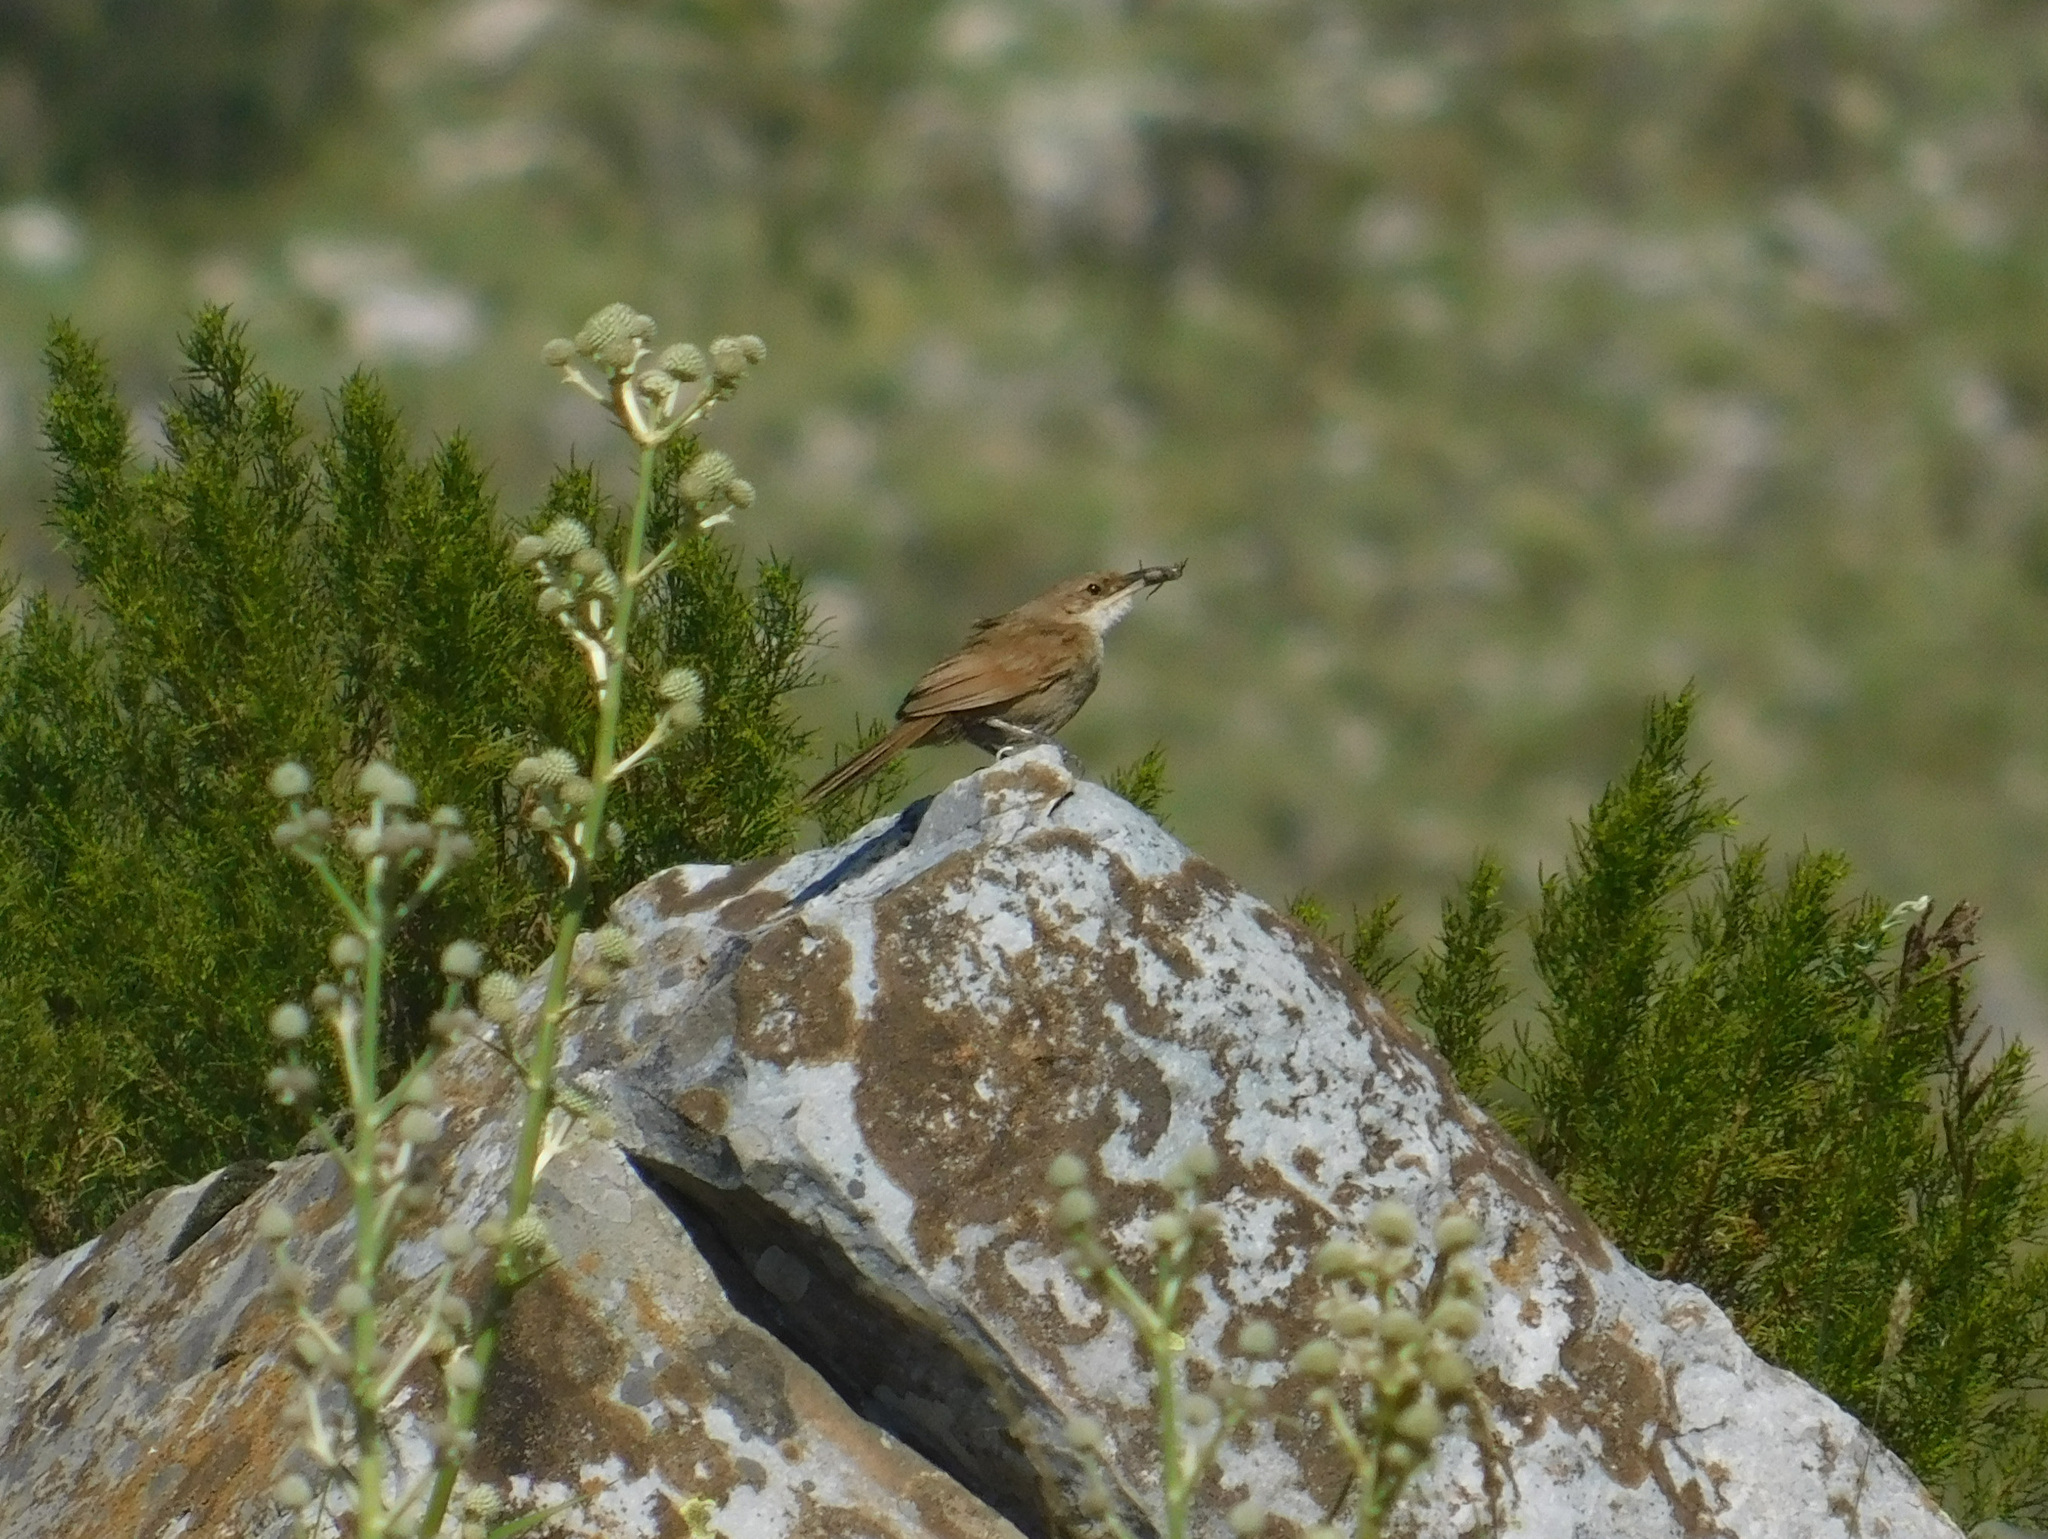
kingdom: Animalia
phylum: Chordata
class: Aves
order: Passeriformes
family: Furnariidae
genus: Upucerthia
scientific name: Upucerthia certhioides
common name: Chaco earthcreeper
